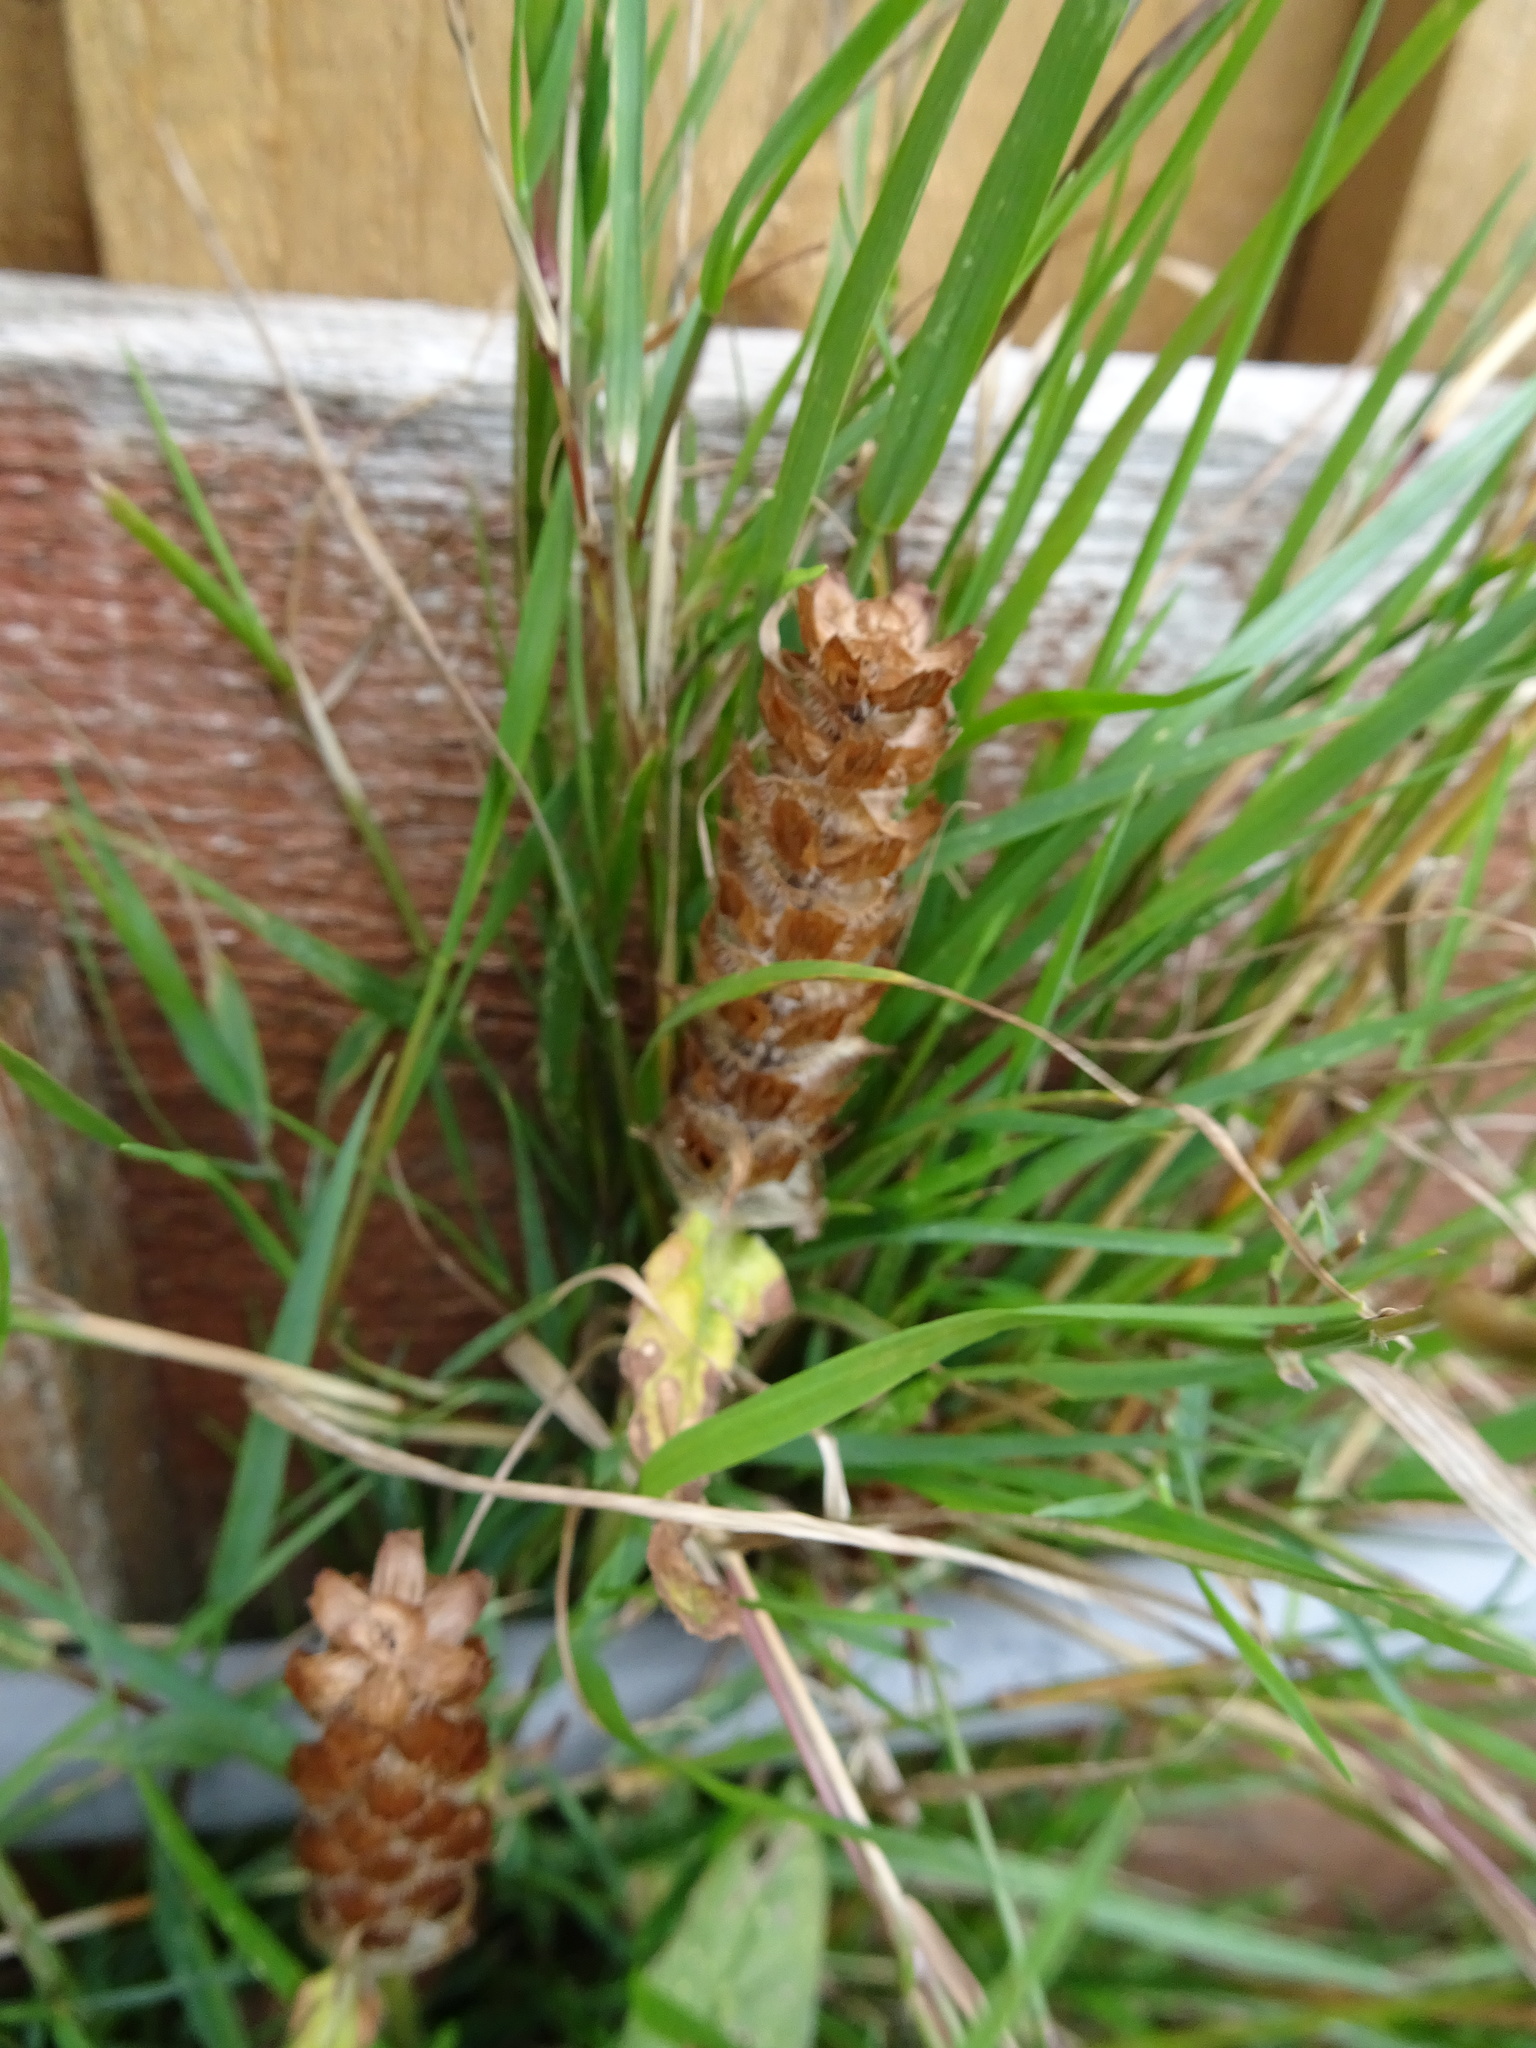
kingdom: Plantae
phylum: Tracheophyta
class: Magnoliopsida
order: Lamiales
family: Lamiaceae
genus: Prunella
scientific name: Prunella vulgaris
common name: Heal-all
